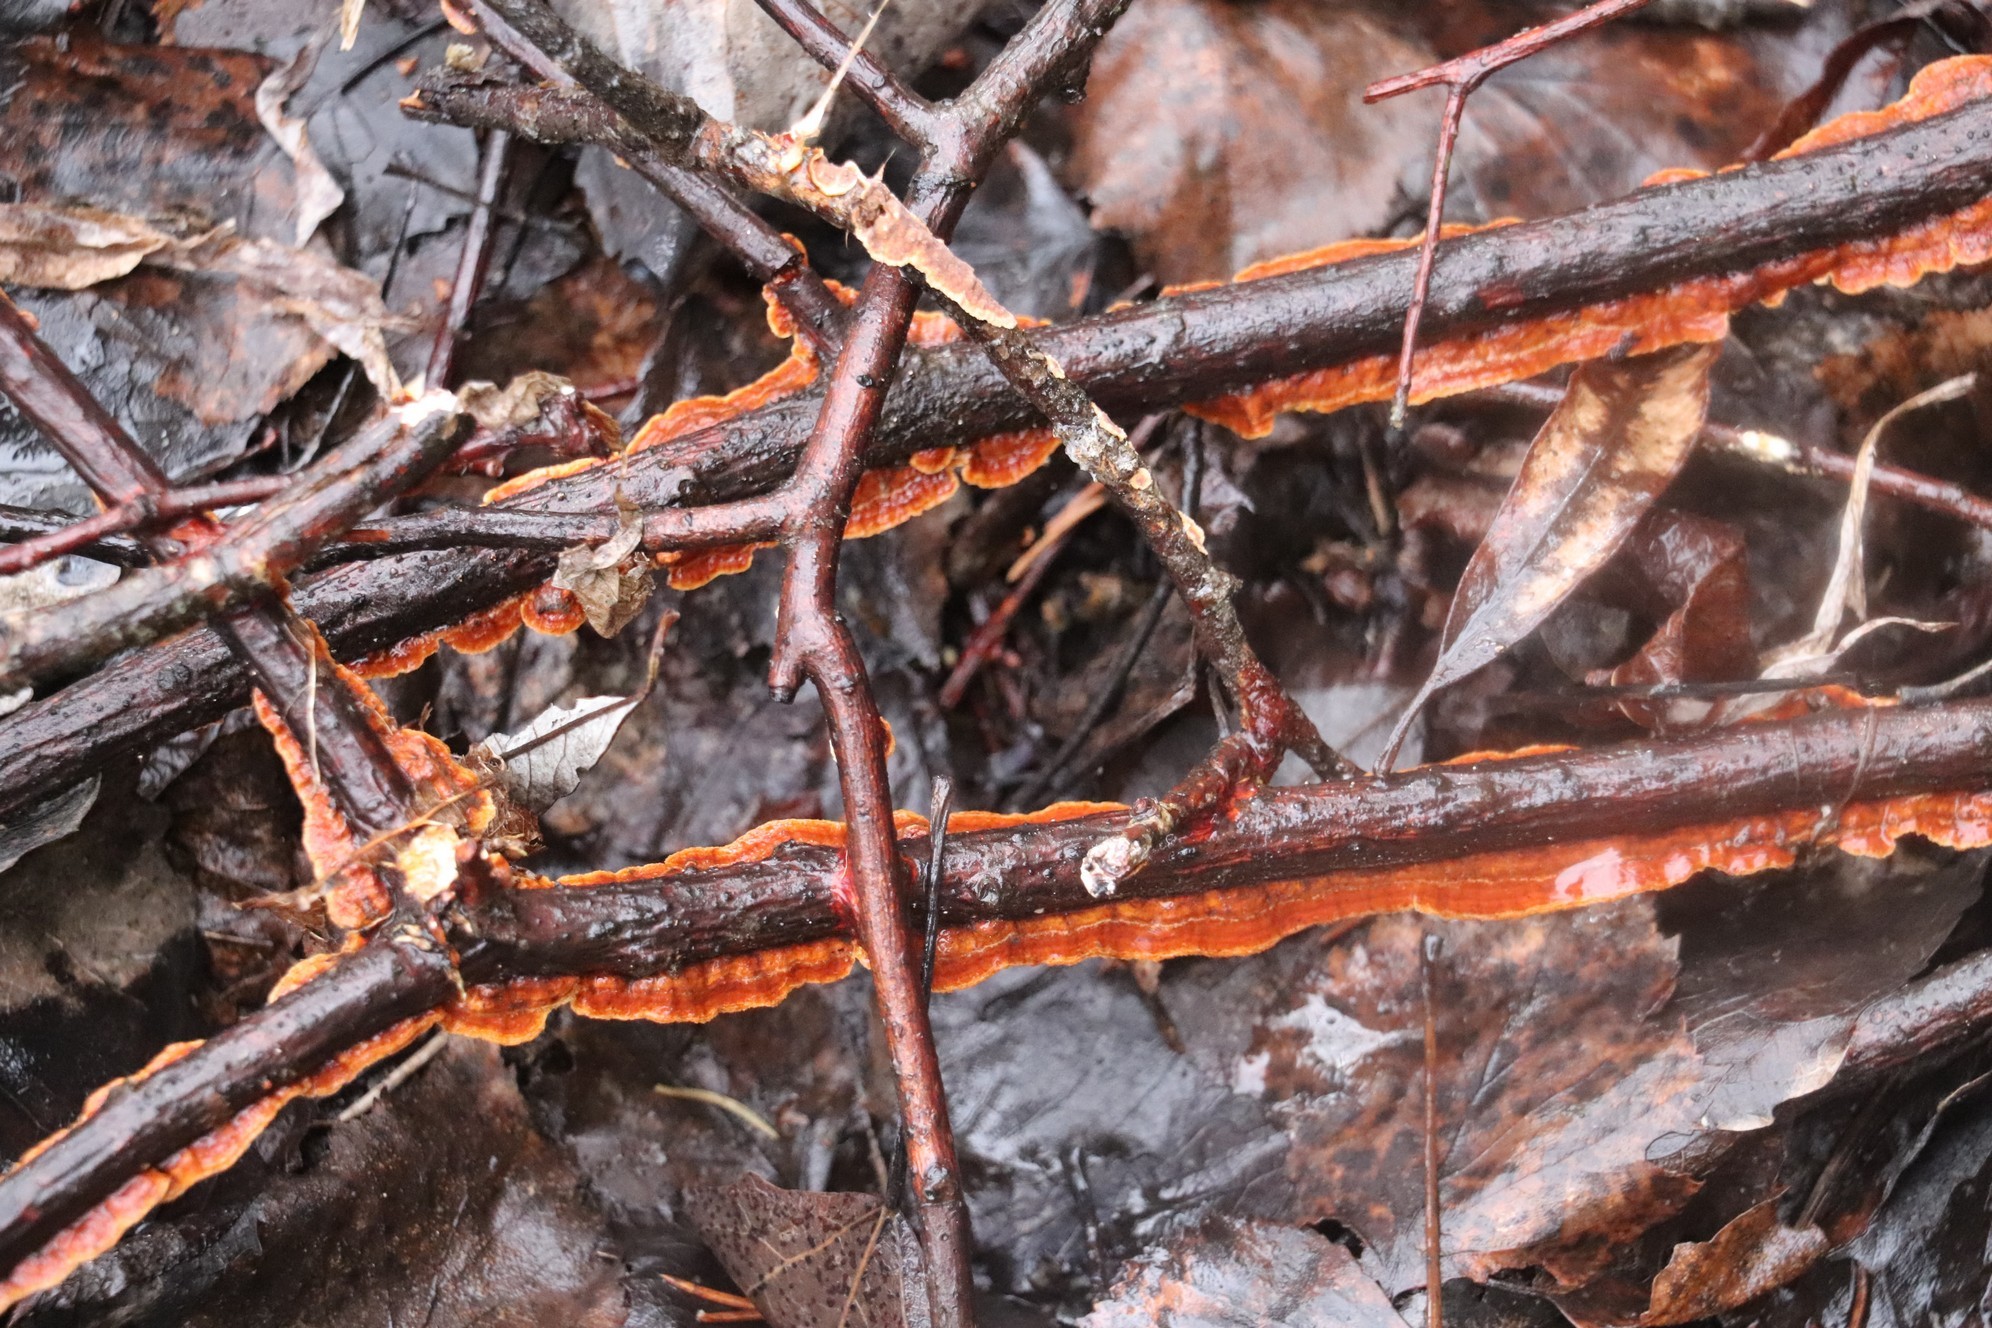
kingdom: Fungi
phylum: Basidiomycota
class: Agaricomycetes
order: Hymenochaetales
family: Hymenochaetaceae
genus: Hydnoporia
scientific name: Hydnoporia tabacina
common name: Willow glue
